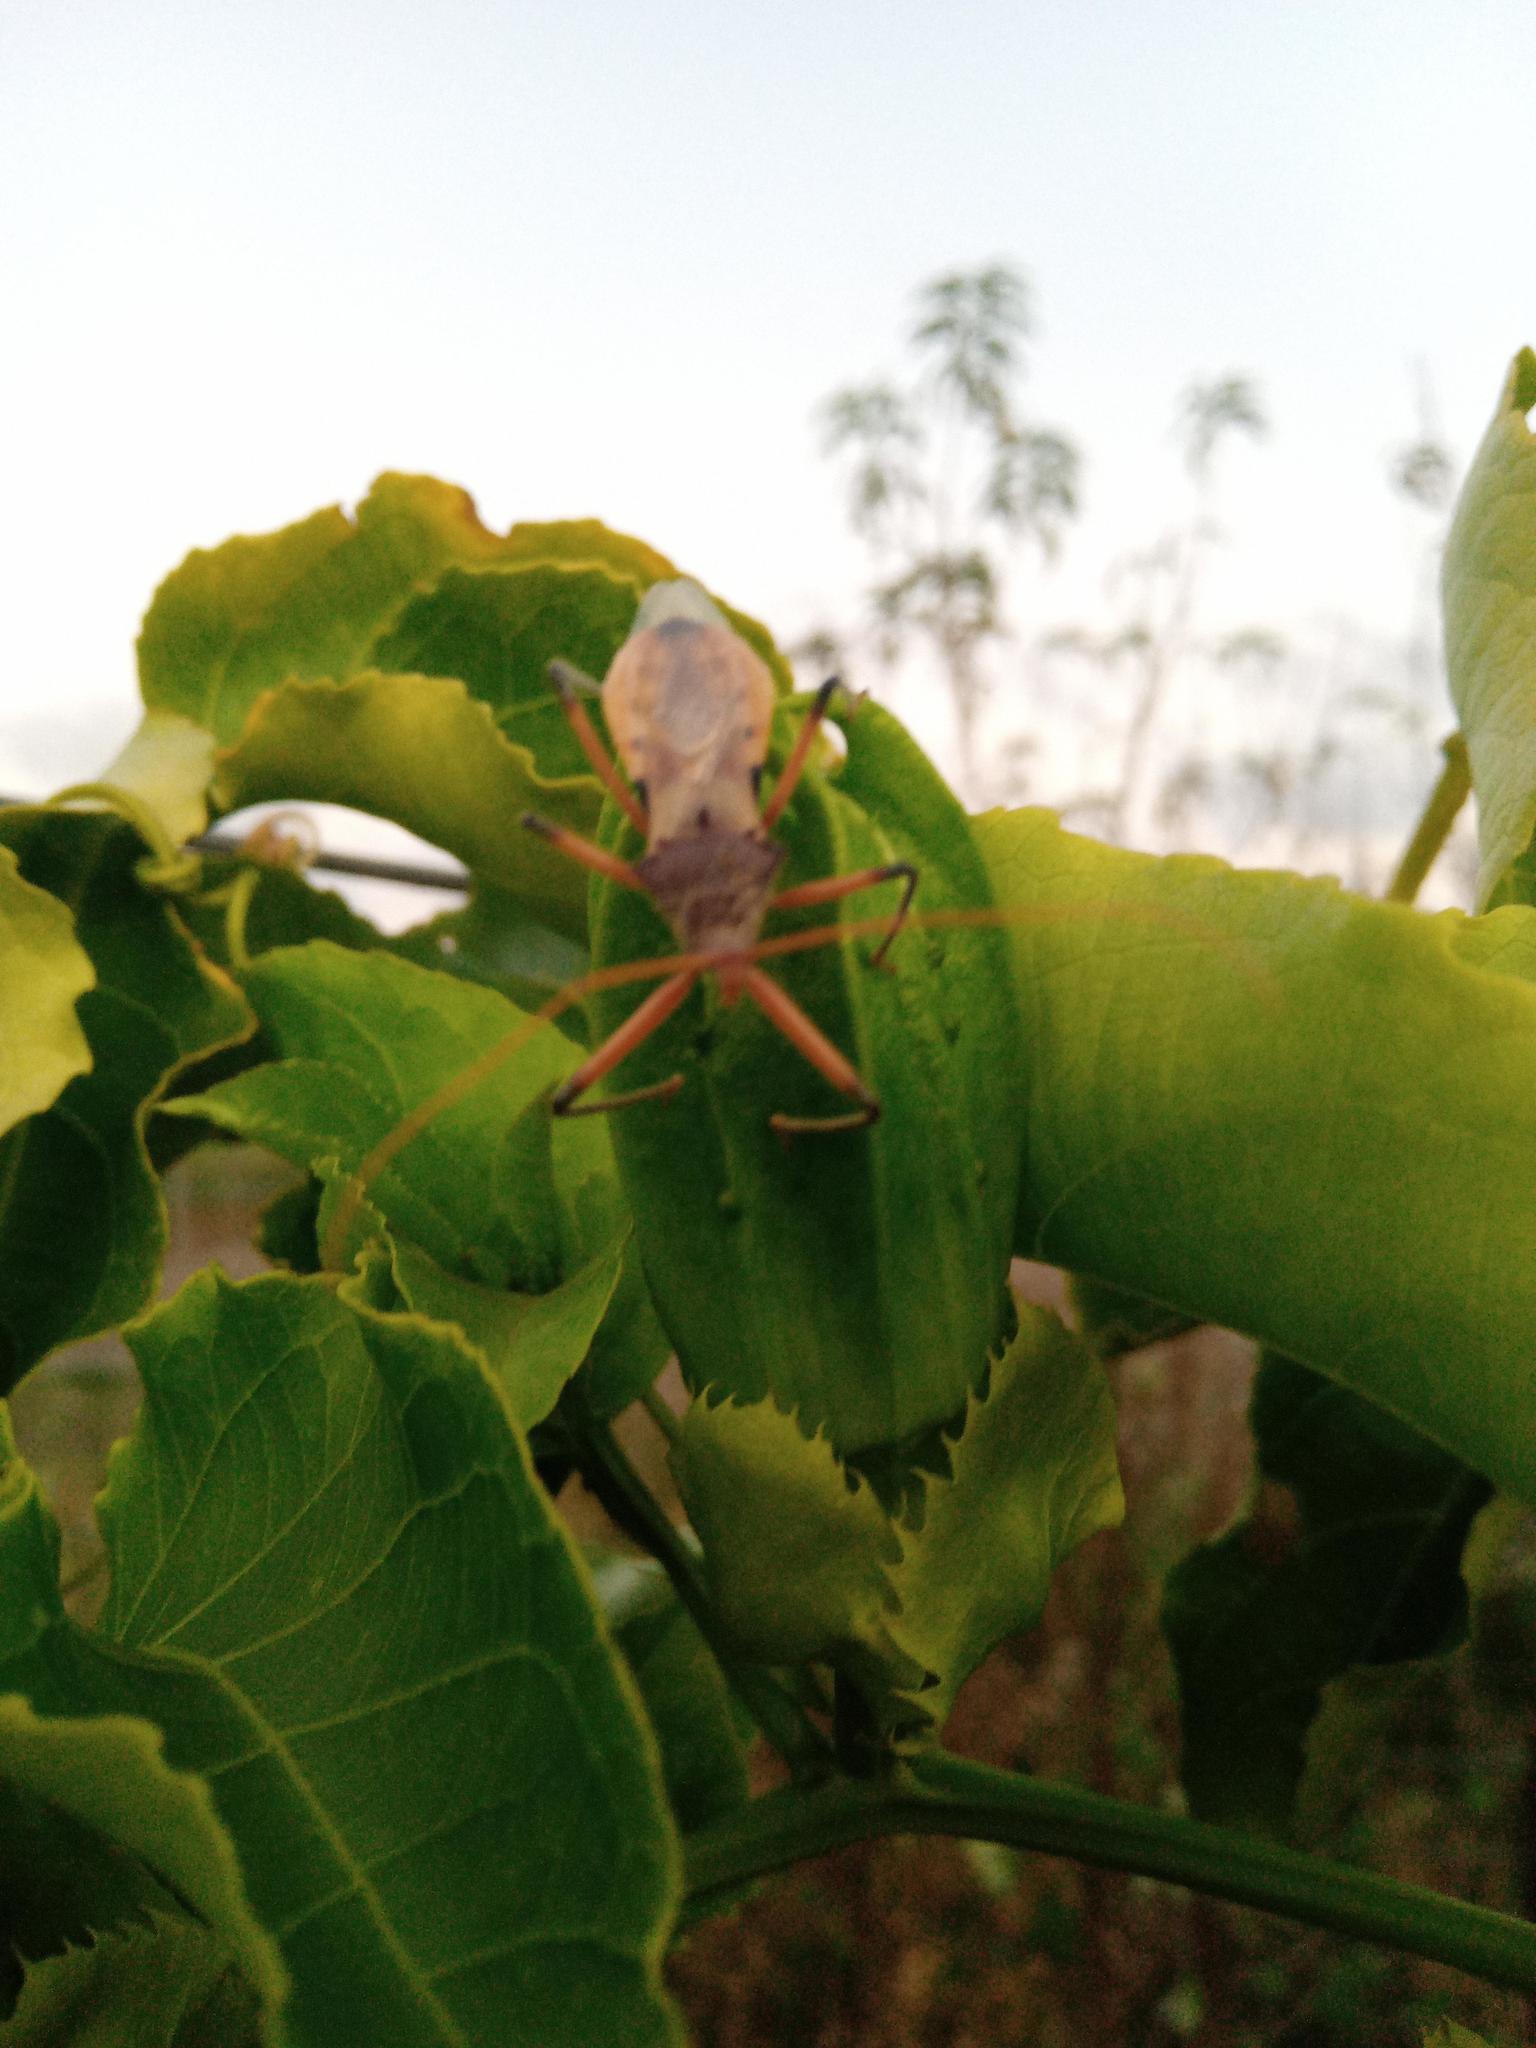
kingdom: Animalia
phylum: Arthropoda
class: Insecta
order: Hemiptera
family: Reduviidae
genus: Pristhesancus
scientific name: Pristhesancus plagipennis
